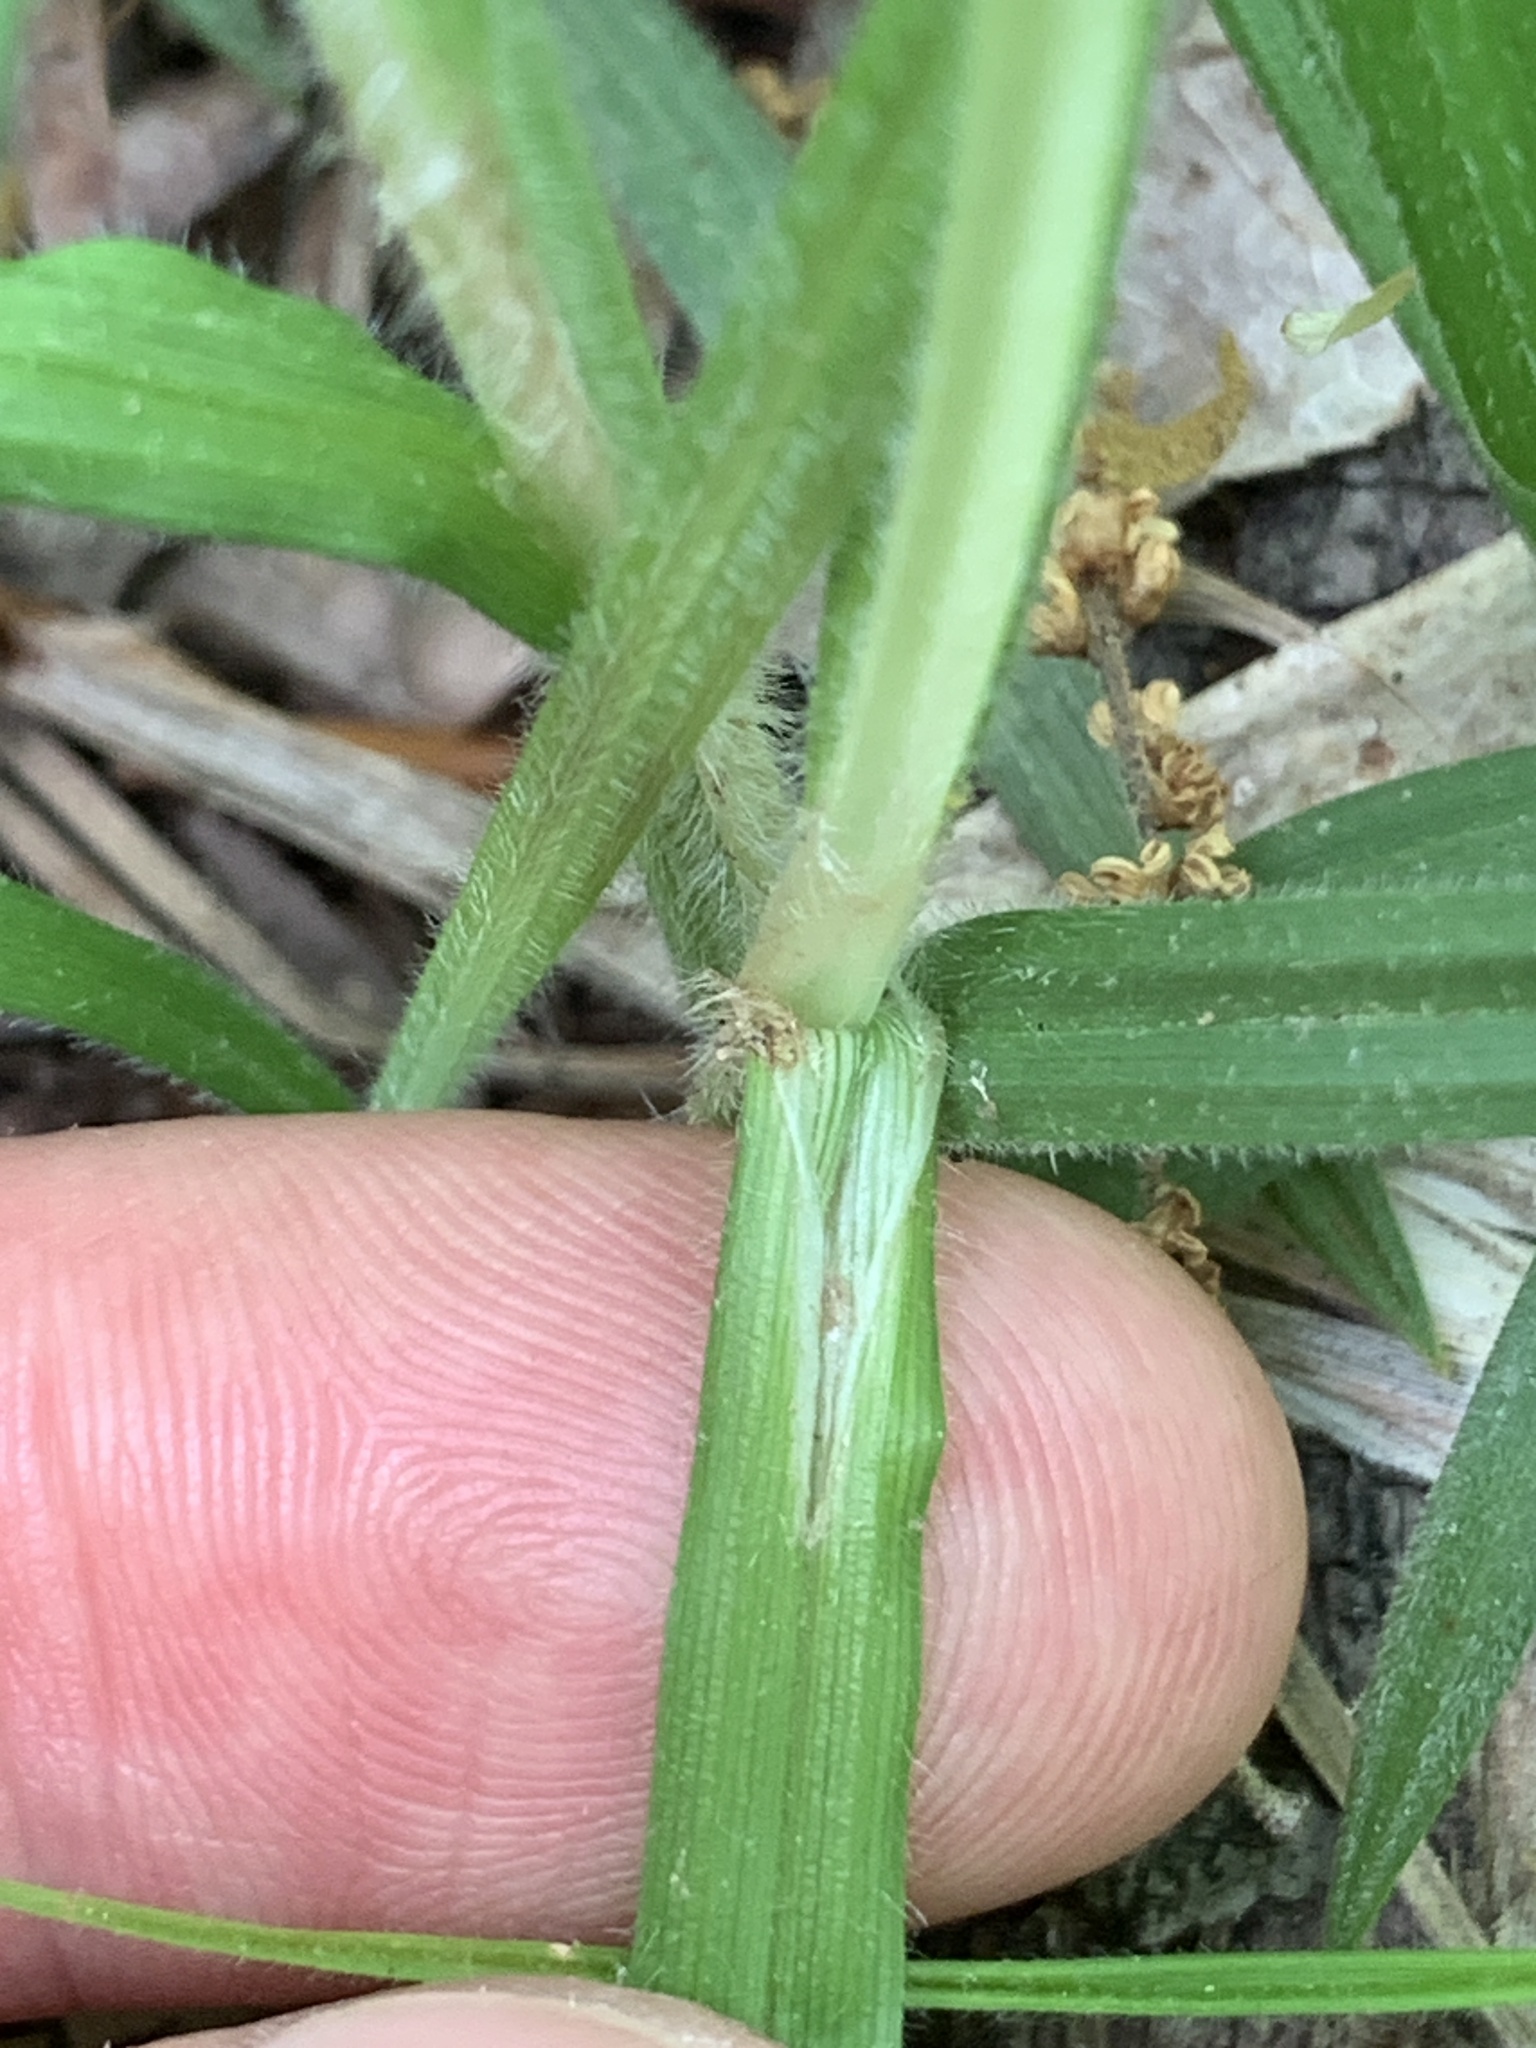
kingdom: Plantae
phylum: Tracheophyta
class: Liliopsida
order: Poales
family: Cyperaceae
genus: Carex
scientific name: Carex hirtifolia
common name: Hairy sedge
